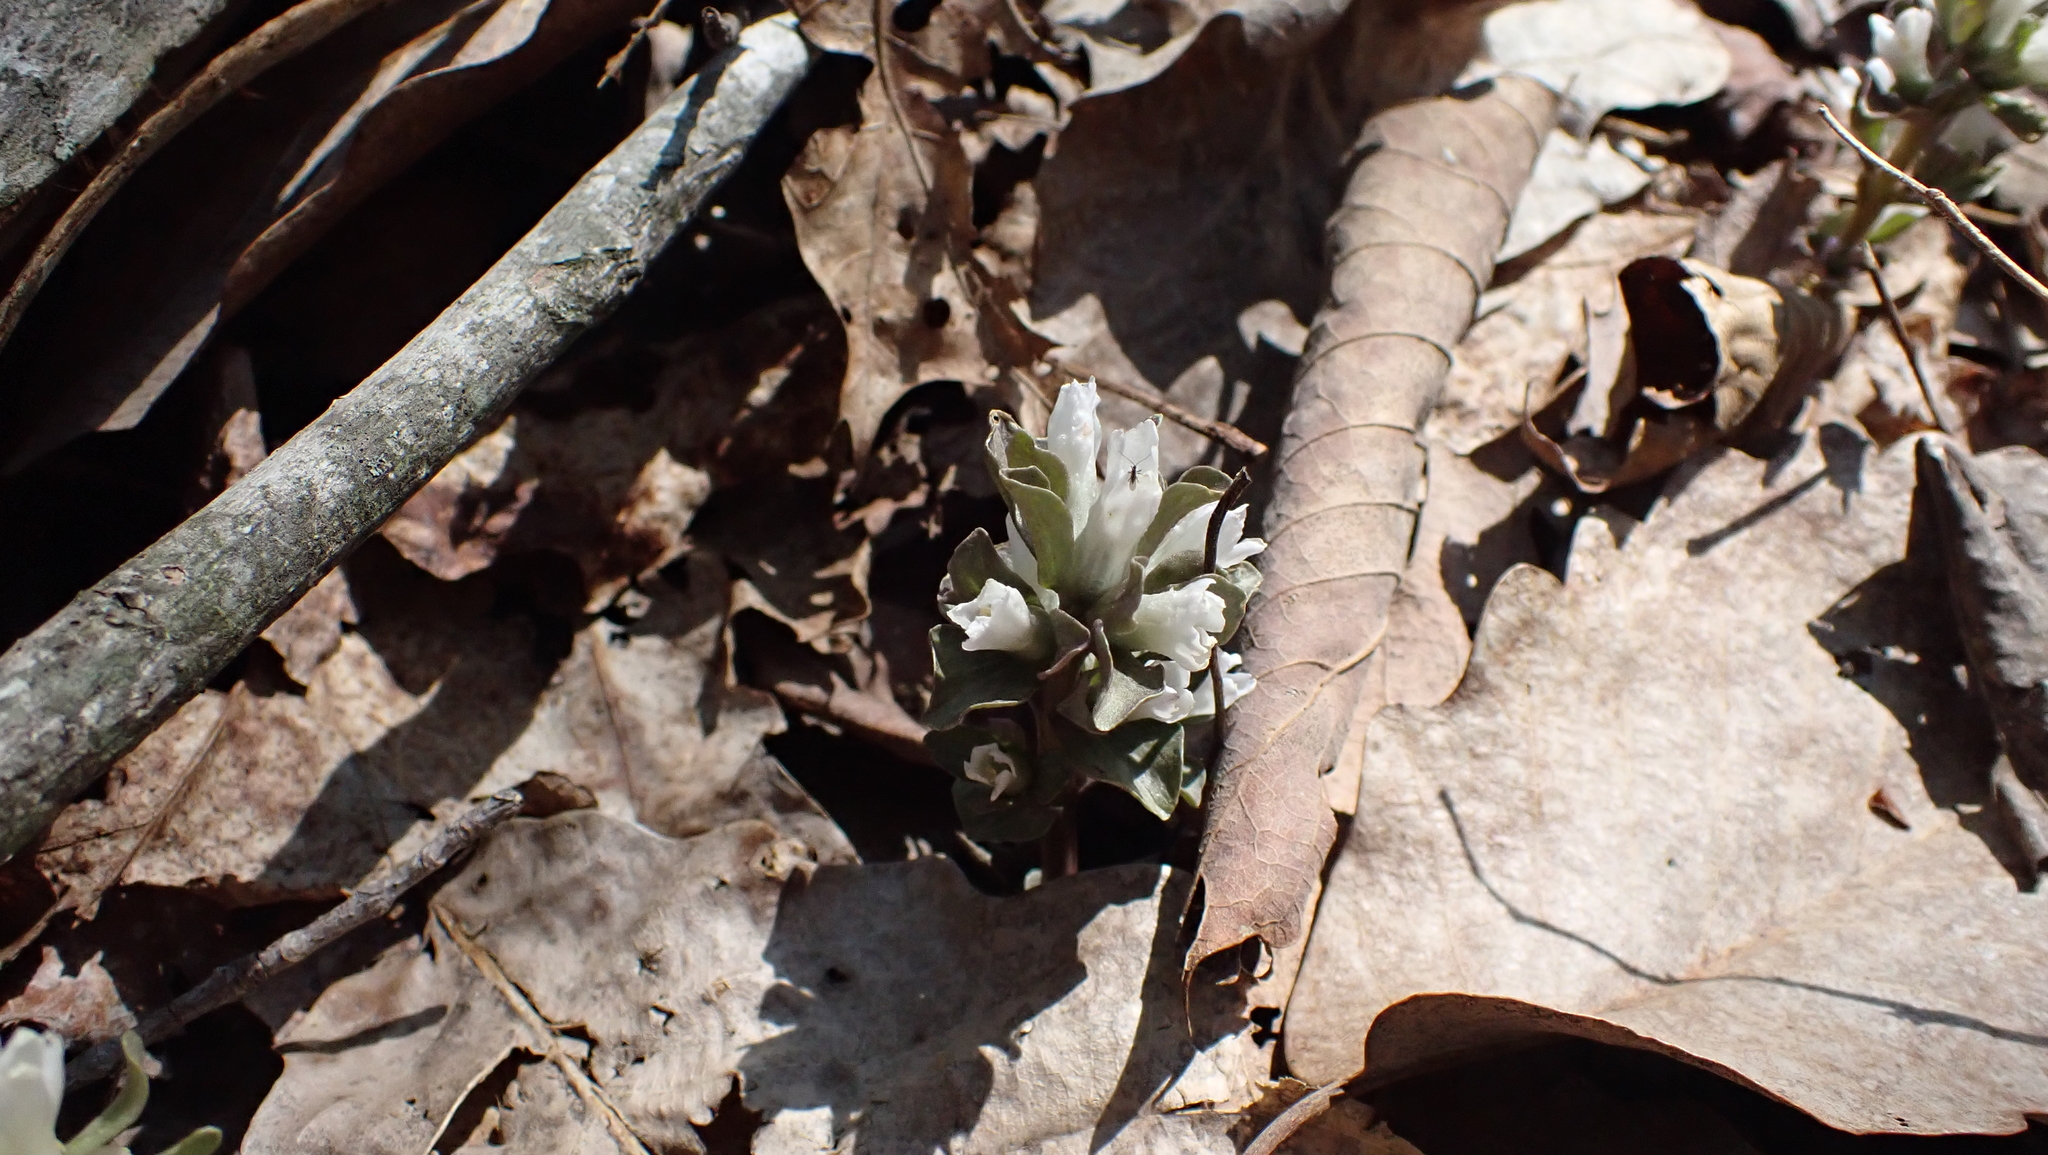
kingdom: Plantae
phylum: Tracheophyta
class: Magnoliopsida
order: Gentianales
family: Gentianaceae
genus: Obolaria
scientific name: Obolaria virginica
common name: Pennywort
